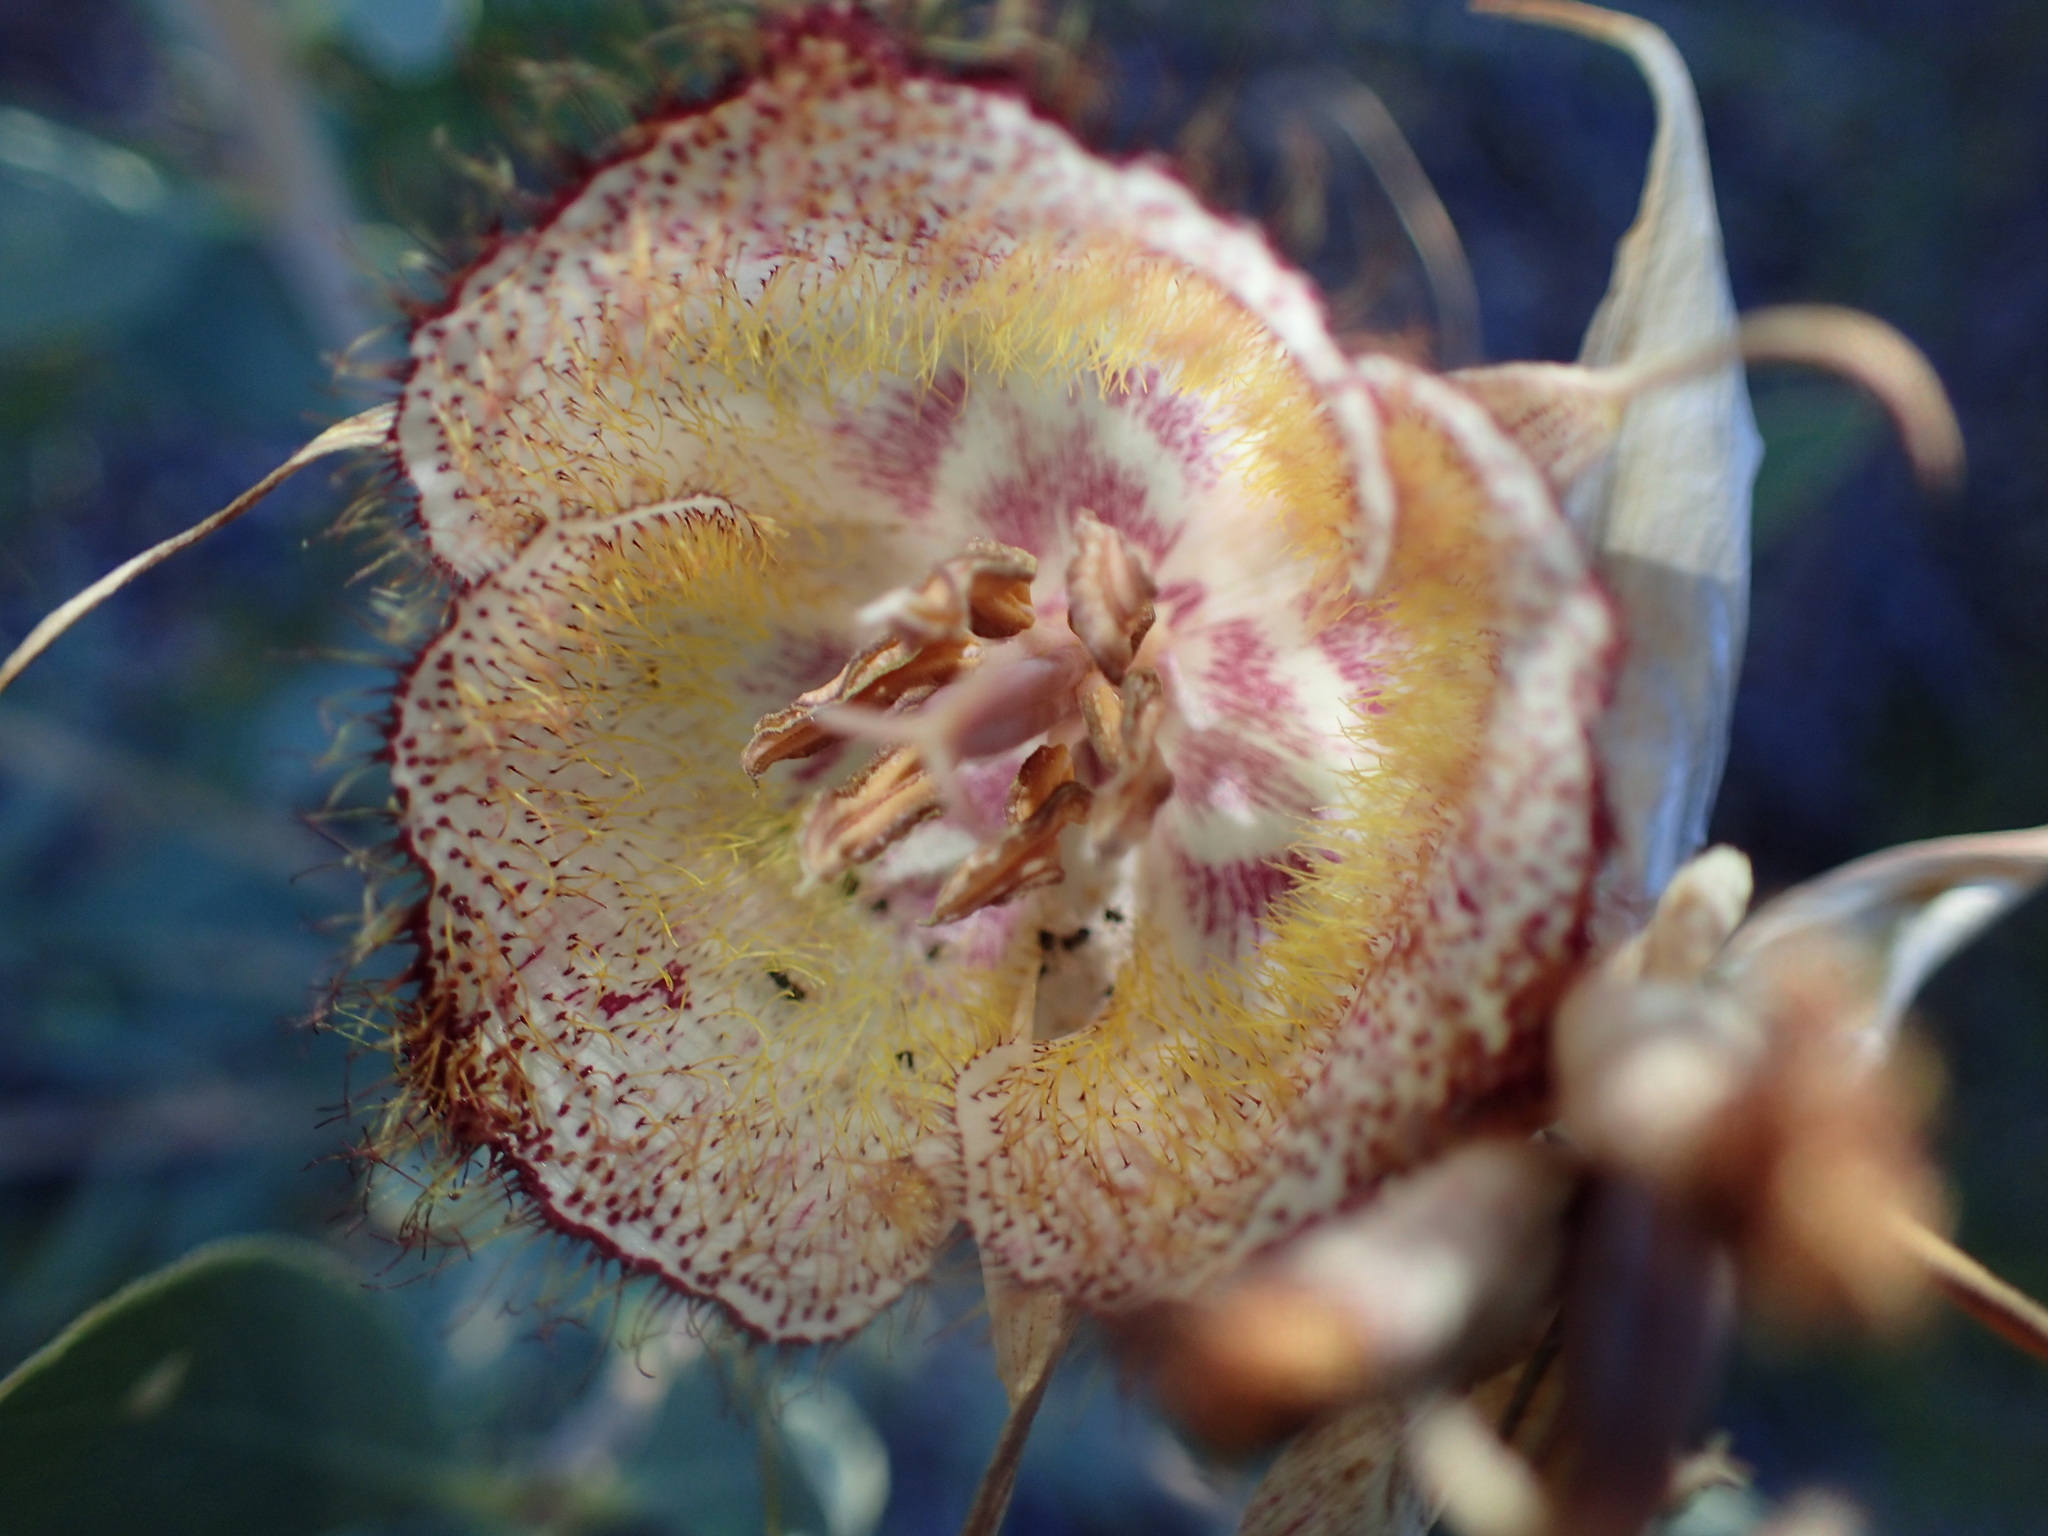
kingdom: Plantae
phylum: Tracheophyta
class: Liliopsida
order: Liliales
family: Liliaceae
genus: Calochortus
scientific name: Calochortus fimbriatus
